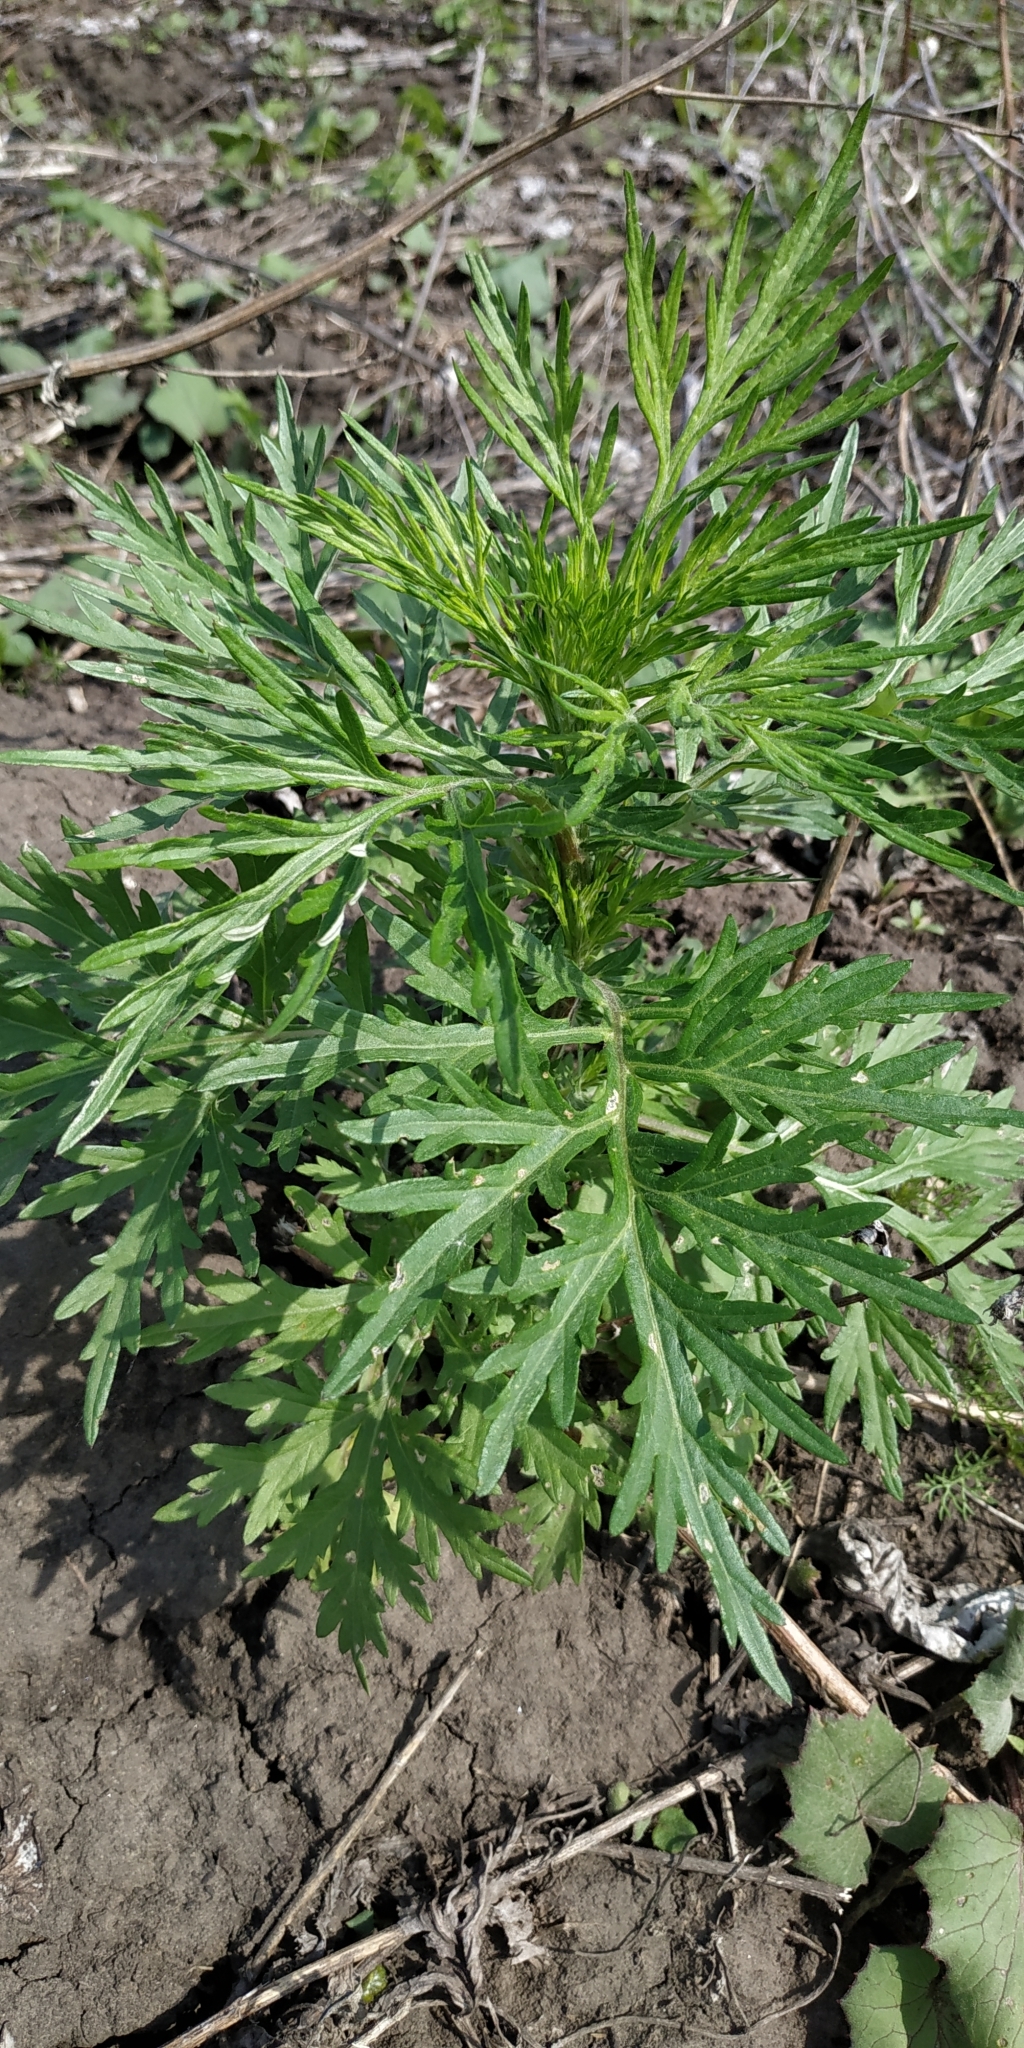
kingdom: Plantae
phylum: Tracheophyta
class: Magnoliopsida
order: Asterales
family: Asteraceae
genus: Artemisia
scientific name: Artemisia vulgaris
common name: Mugwort
